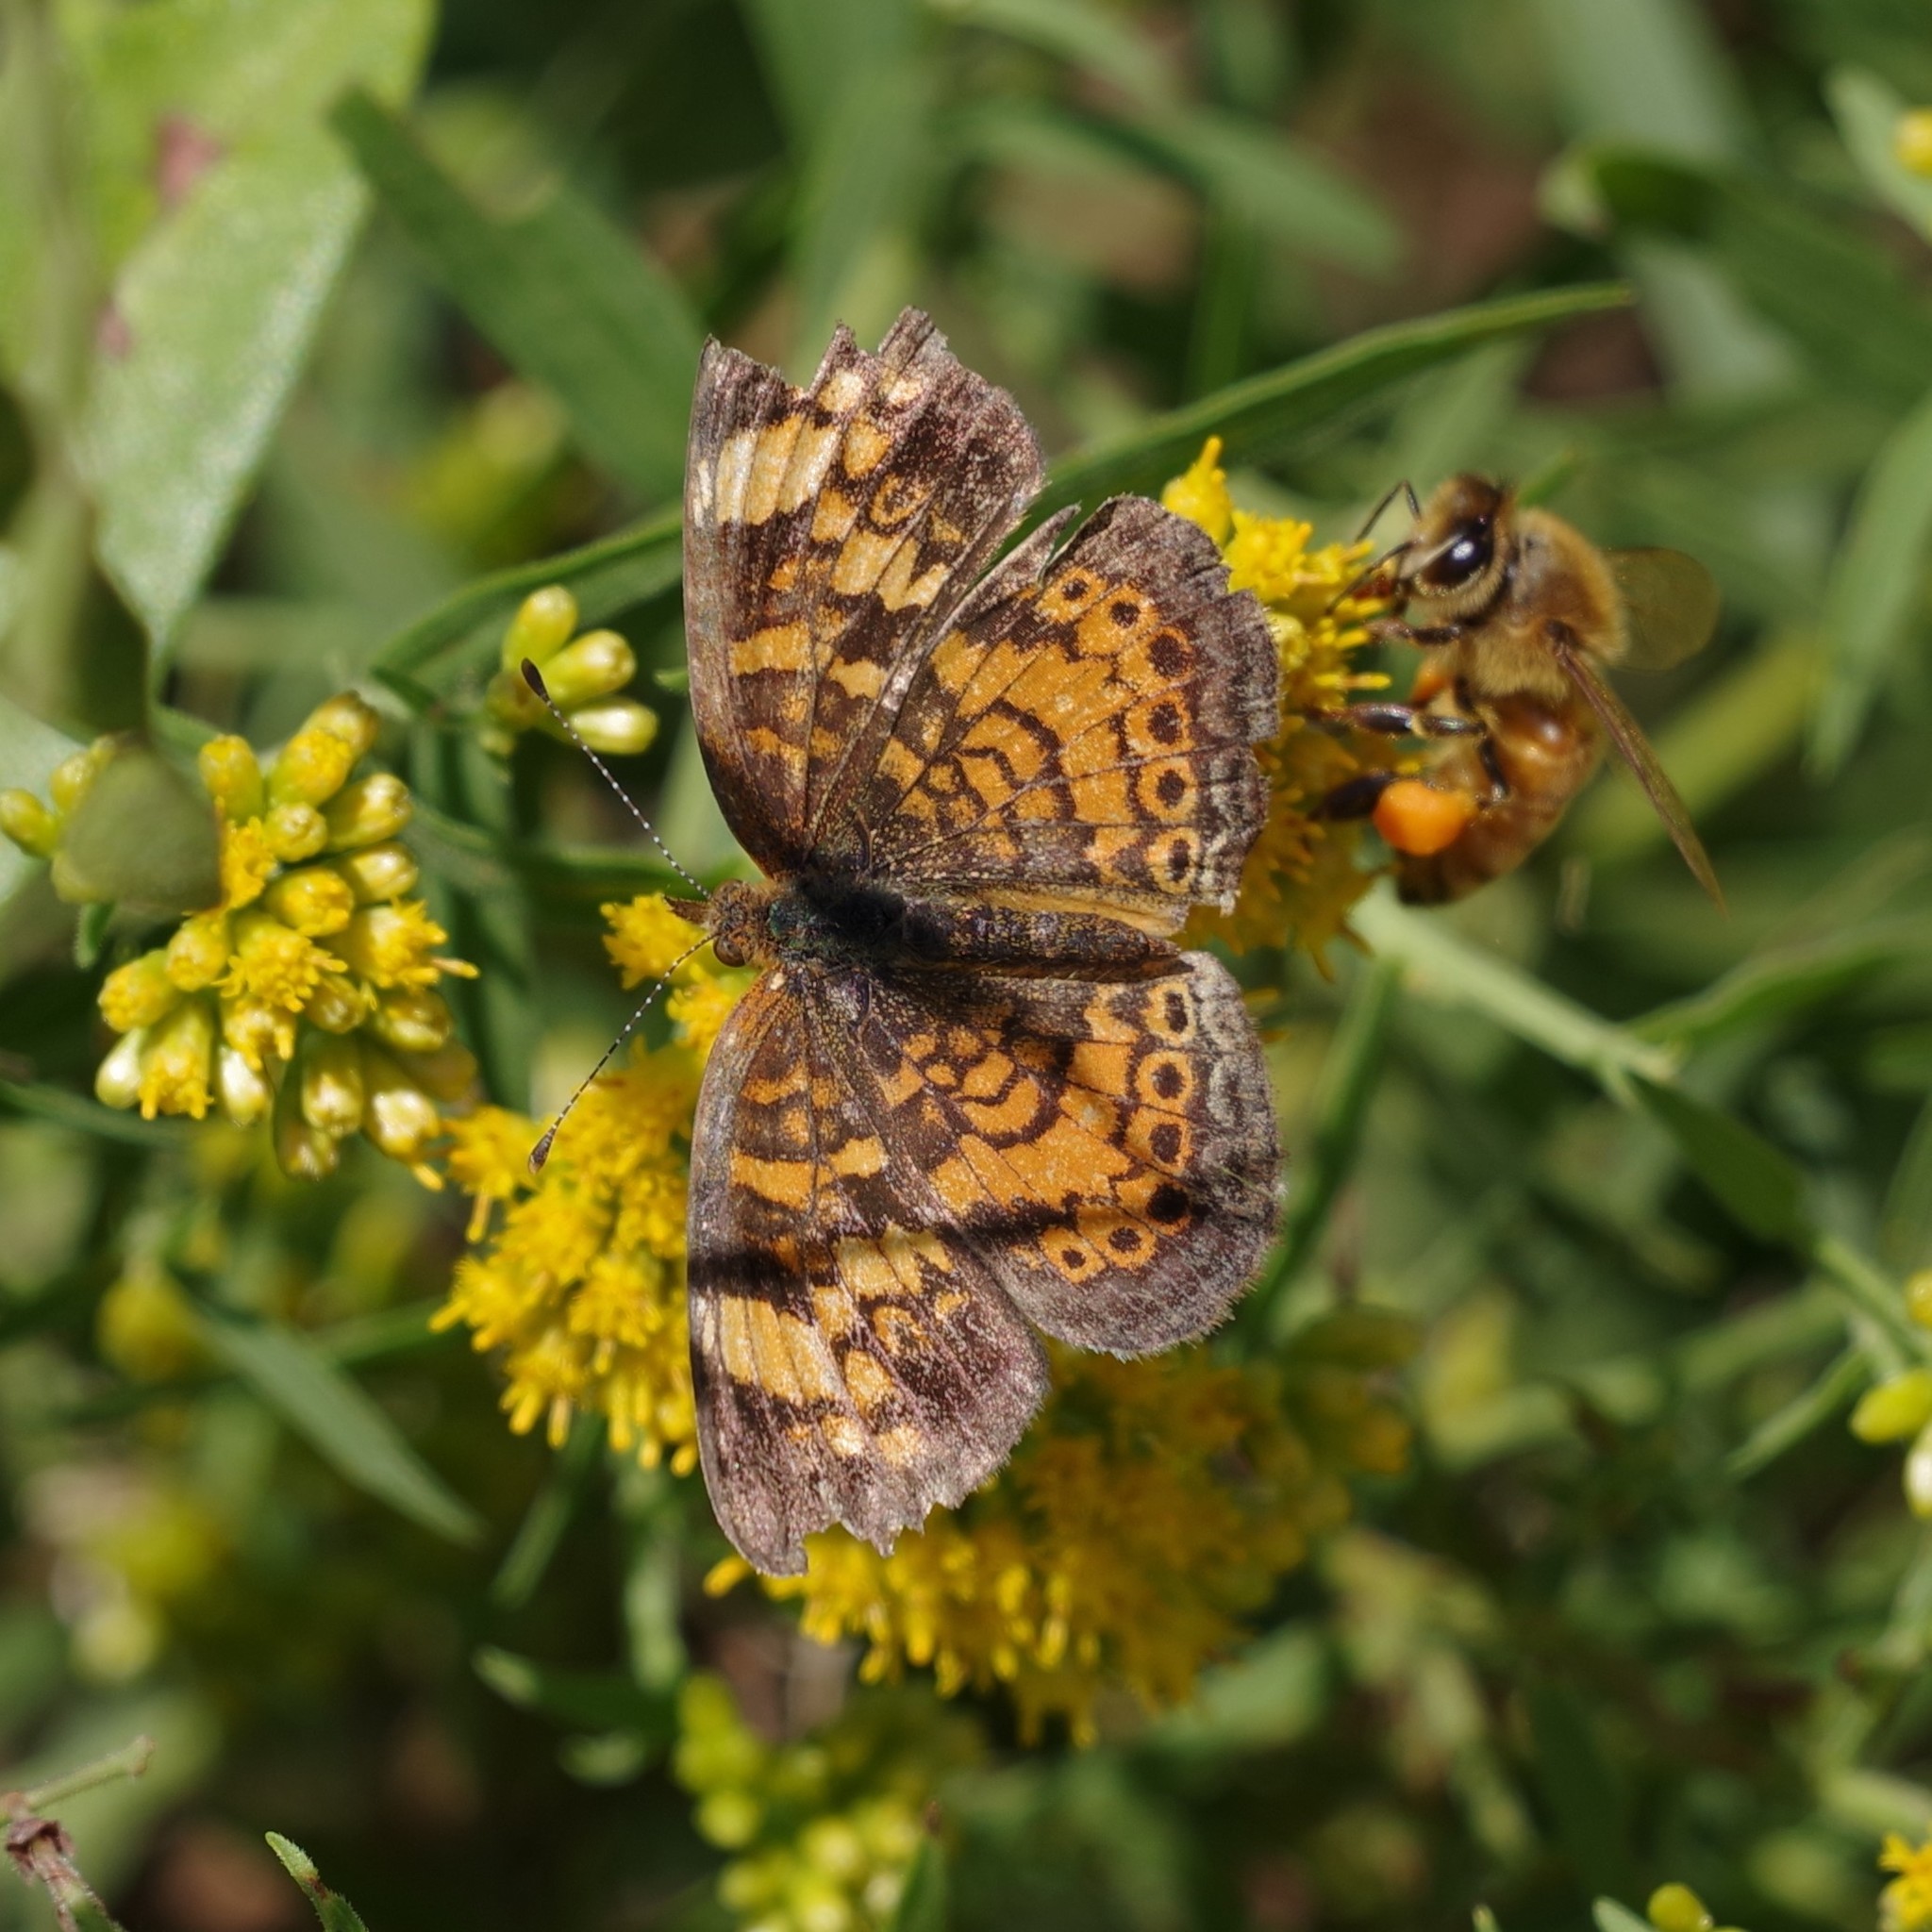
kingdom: Animalia
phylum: Arthropoda
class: Insecta
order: Lepidoptera
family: Nymphalidae
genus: Phyciodes
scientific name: Phyciodes tharos
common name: Pearl crescent
